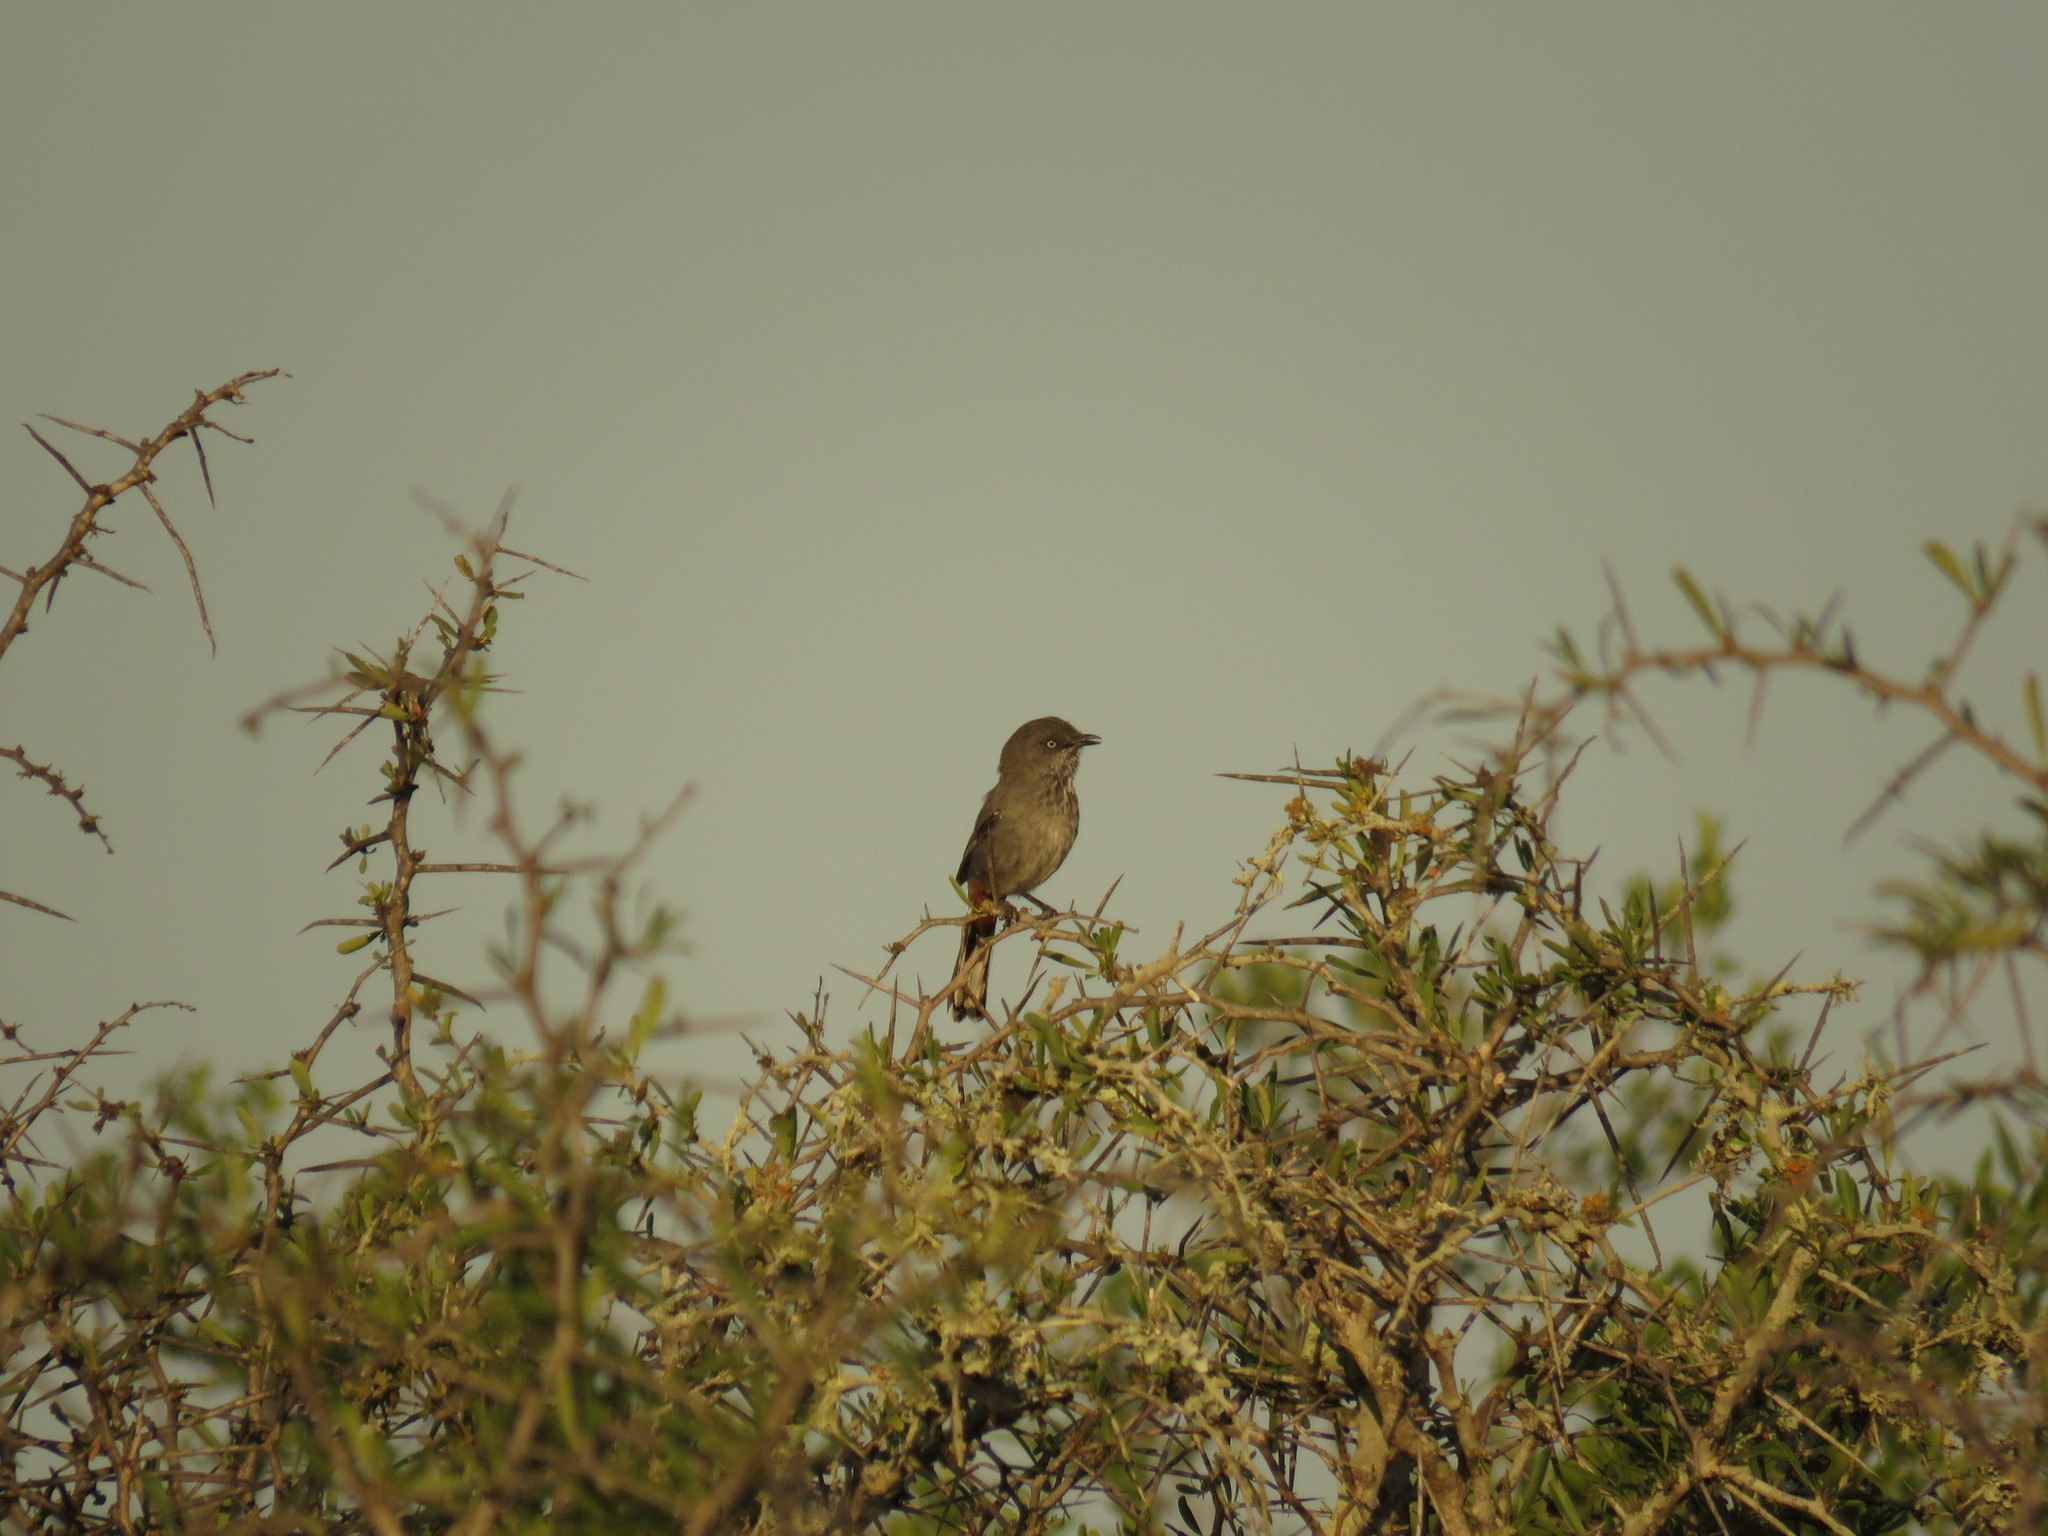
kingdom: Animalia
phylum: Chordata
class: Aves
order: Passeriformes
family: Sylviidae
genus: Curruca
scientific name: Curruca subcoerulea
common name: Chestnut-vented warbler
